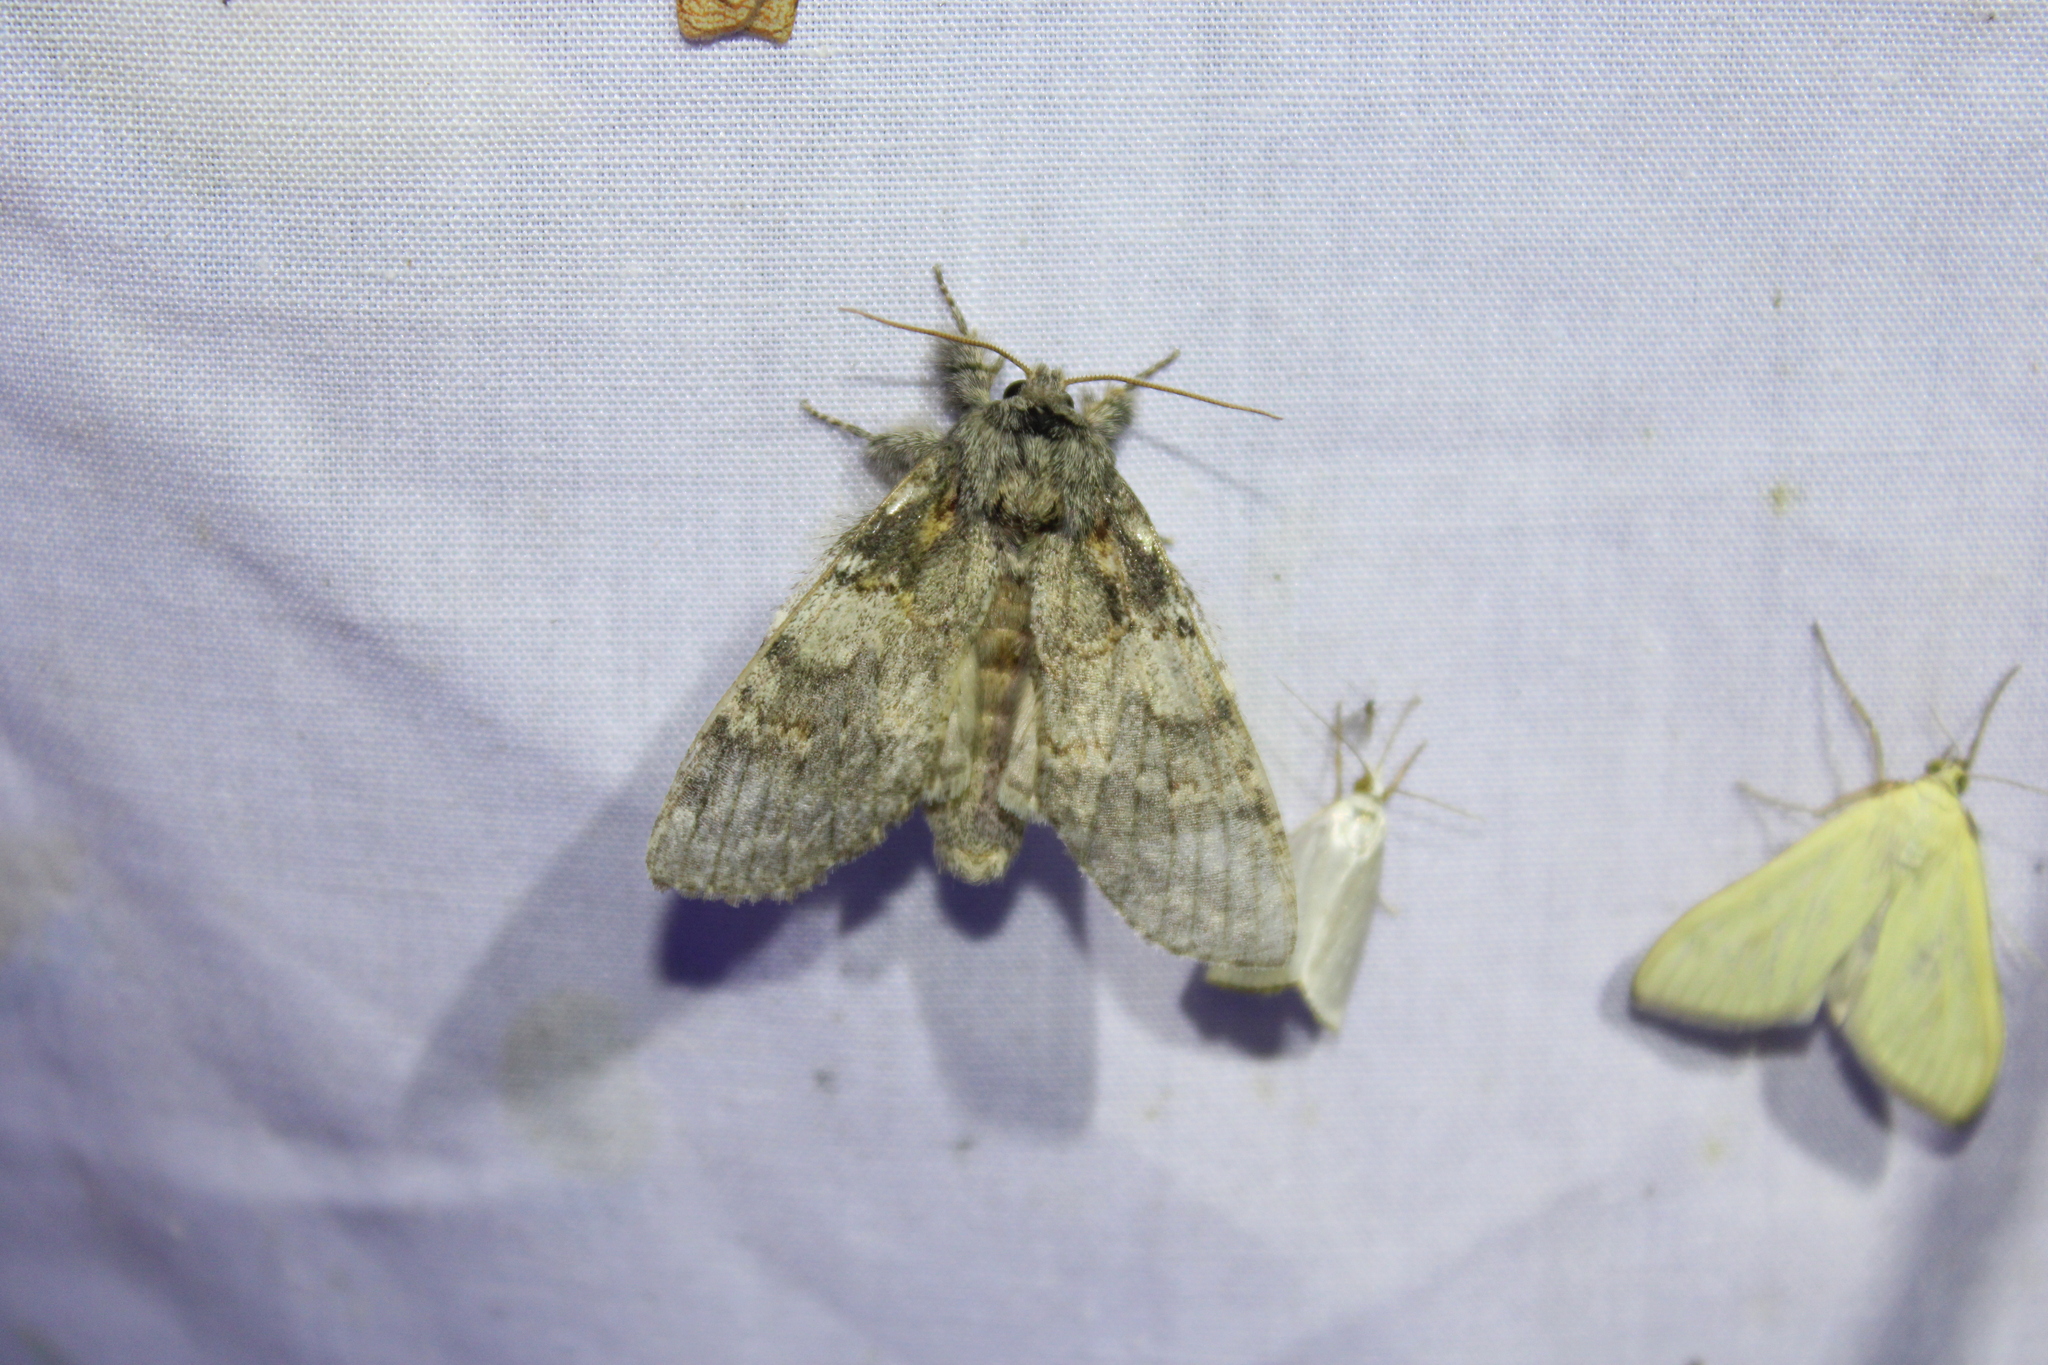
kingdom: Animalia
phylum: Arthropoda
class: Insecta
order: Lepidoptera
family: Notodontidae
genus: Peridea
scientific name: Peridea angulosa
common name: Angulose prominent
